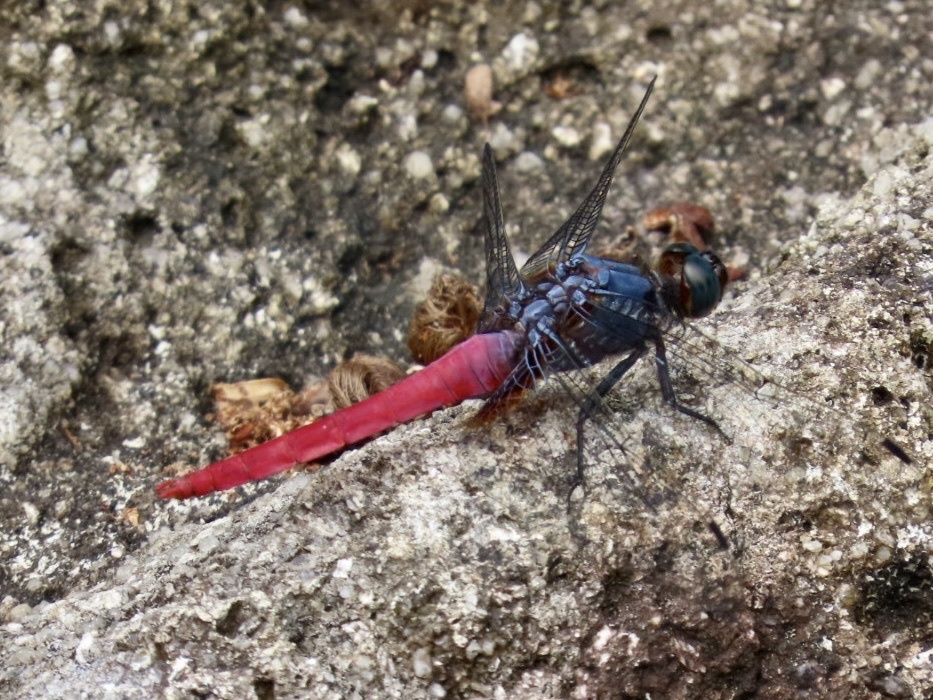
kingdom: Animalia
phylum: Arthropoda
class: Insecta
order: Odonata
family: Libellulidae
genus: Orthetrum
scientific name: Orthetrum pruinosum
